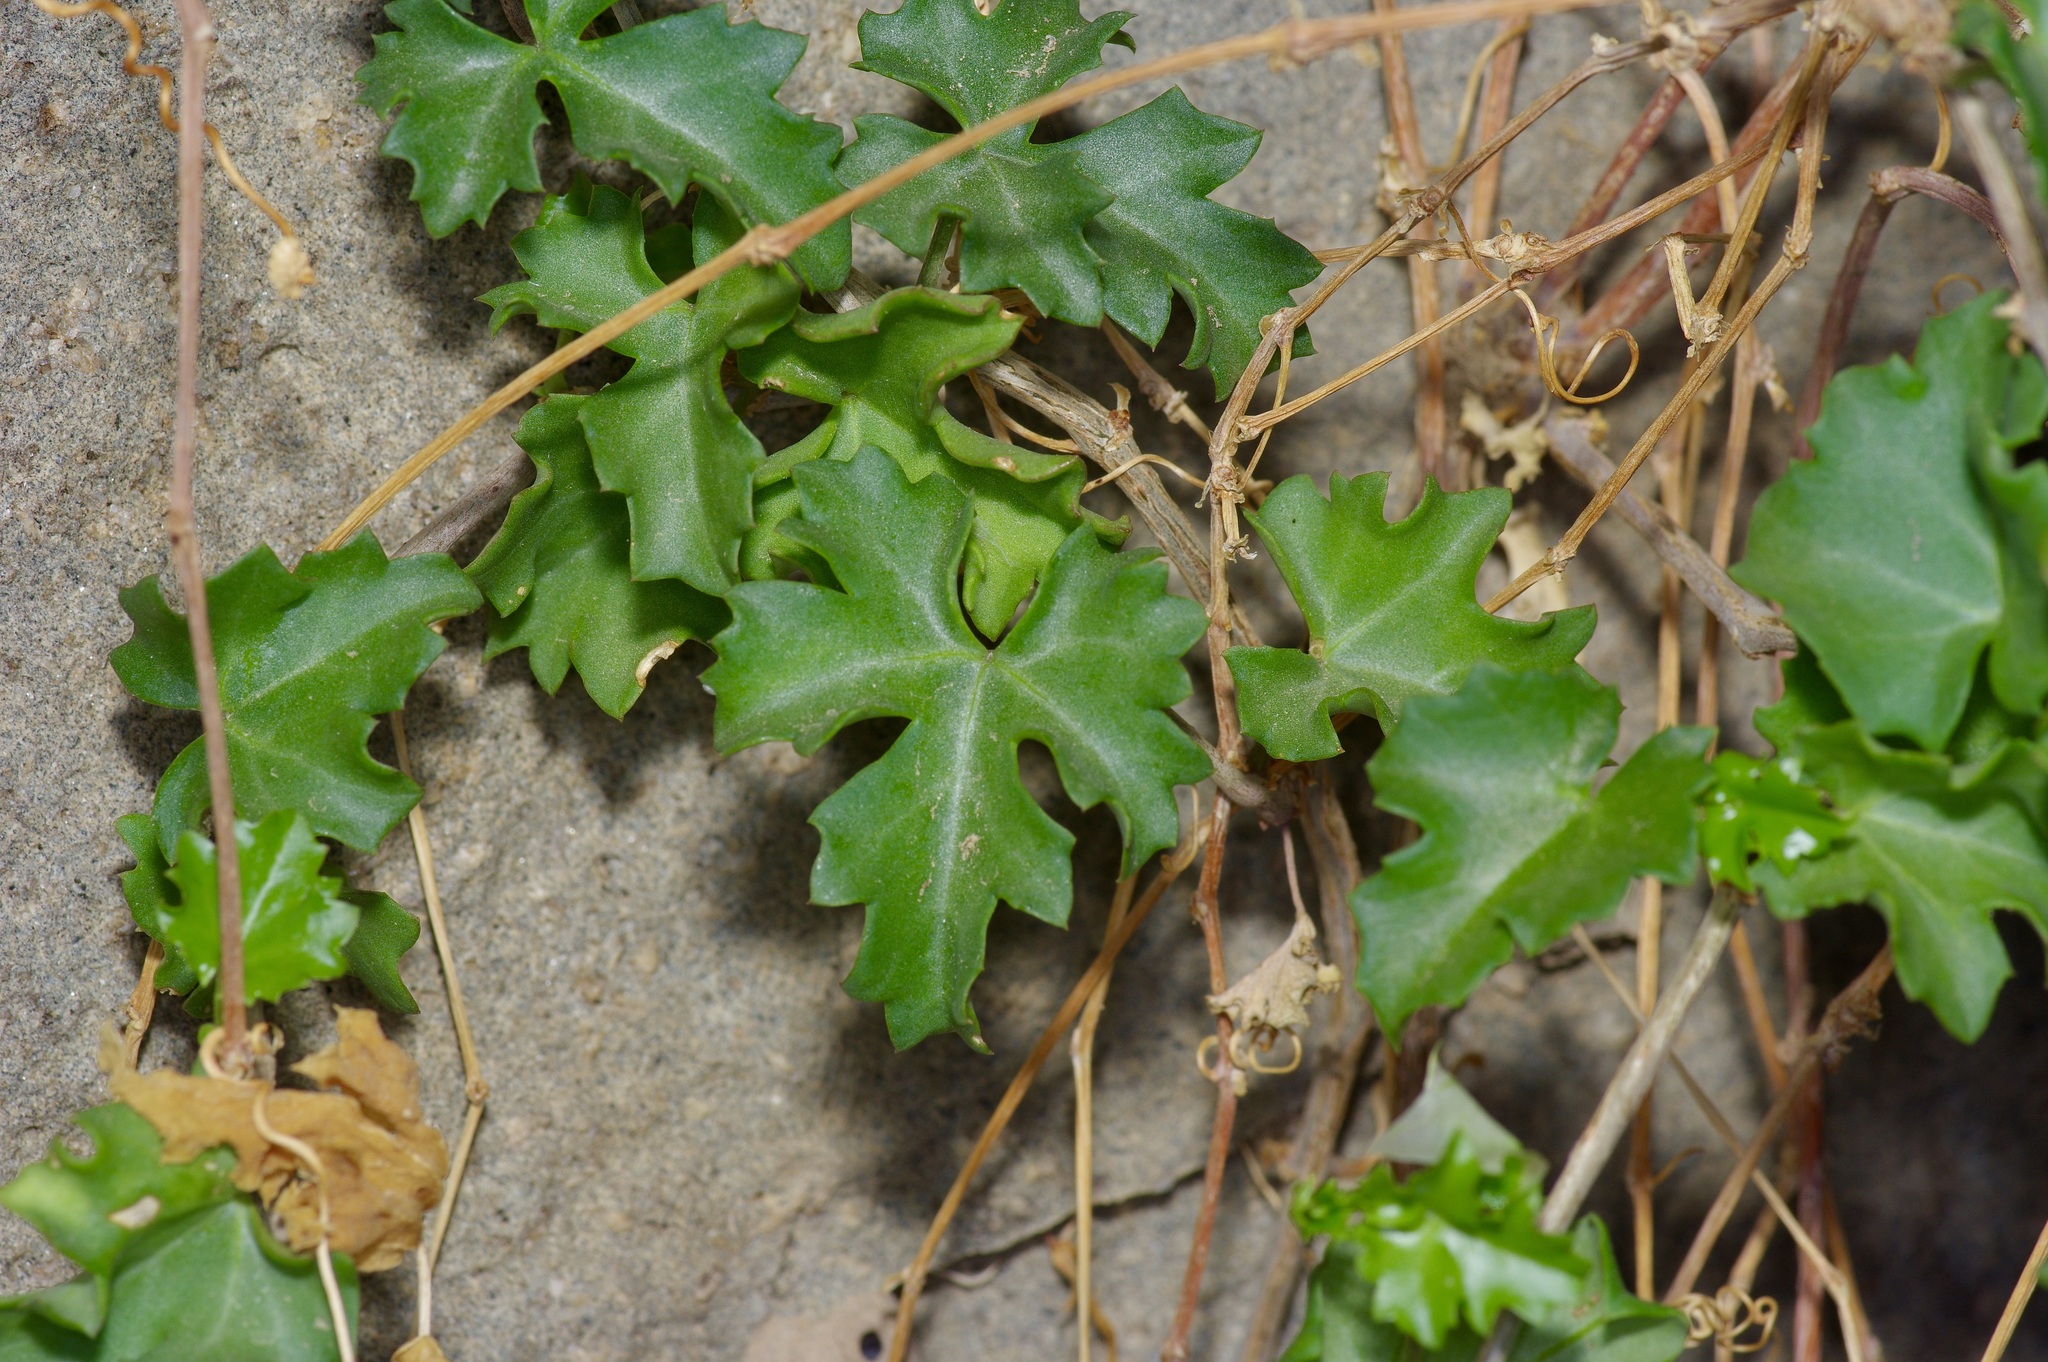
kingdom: Plantae
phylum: Tracheophyta
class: Magnoliopsida
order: Vitales
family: Vitaceae
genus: Cissus
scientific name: Cissus trifoliata
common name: Vine-sorrel
